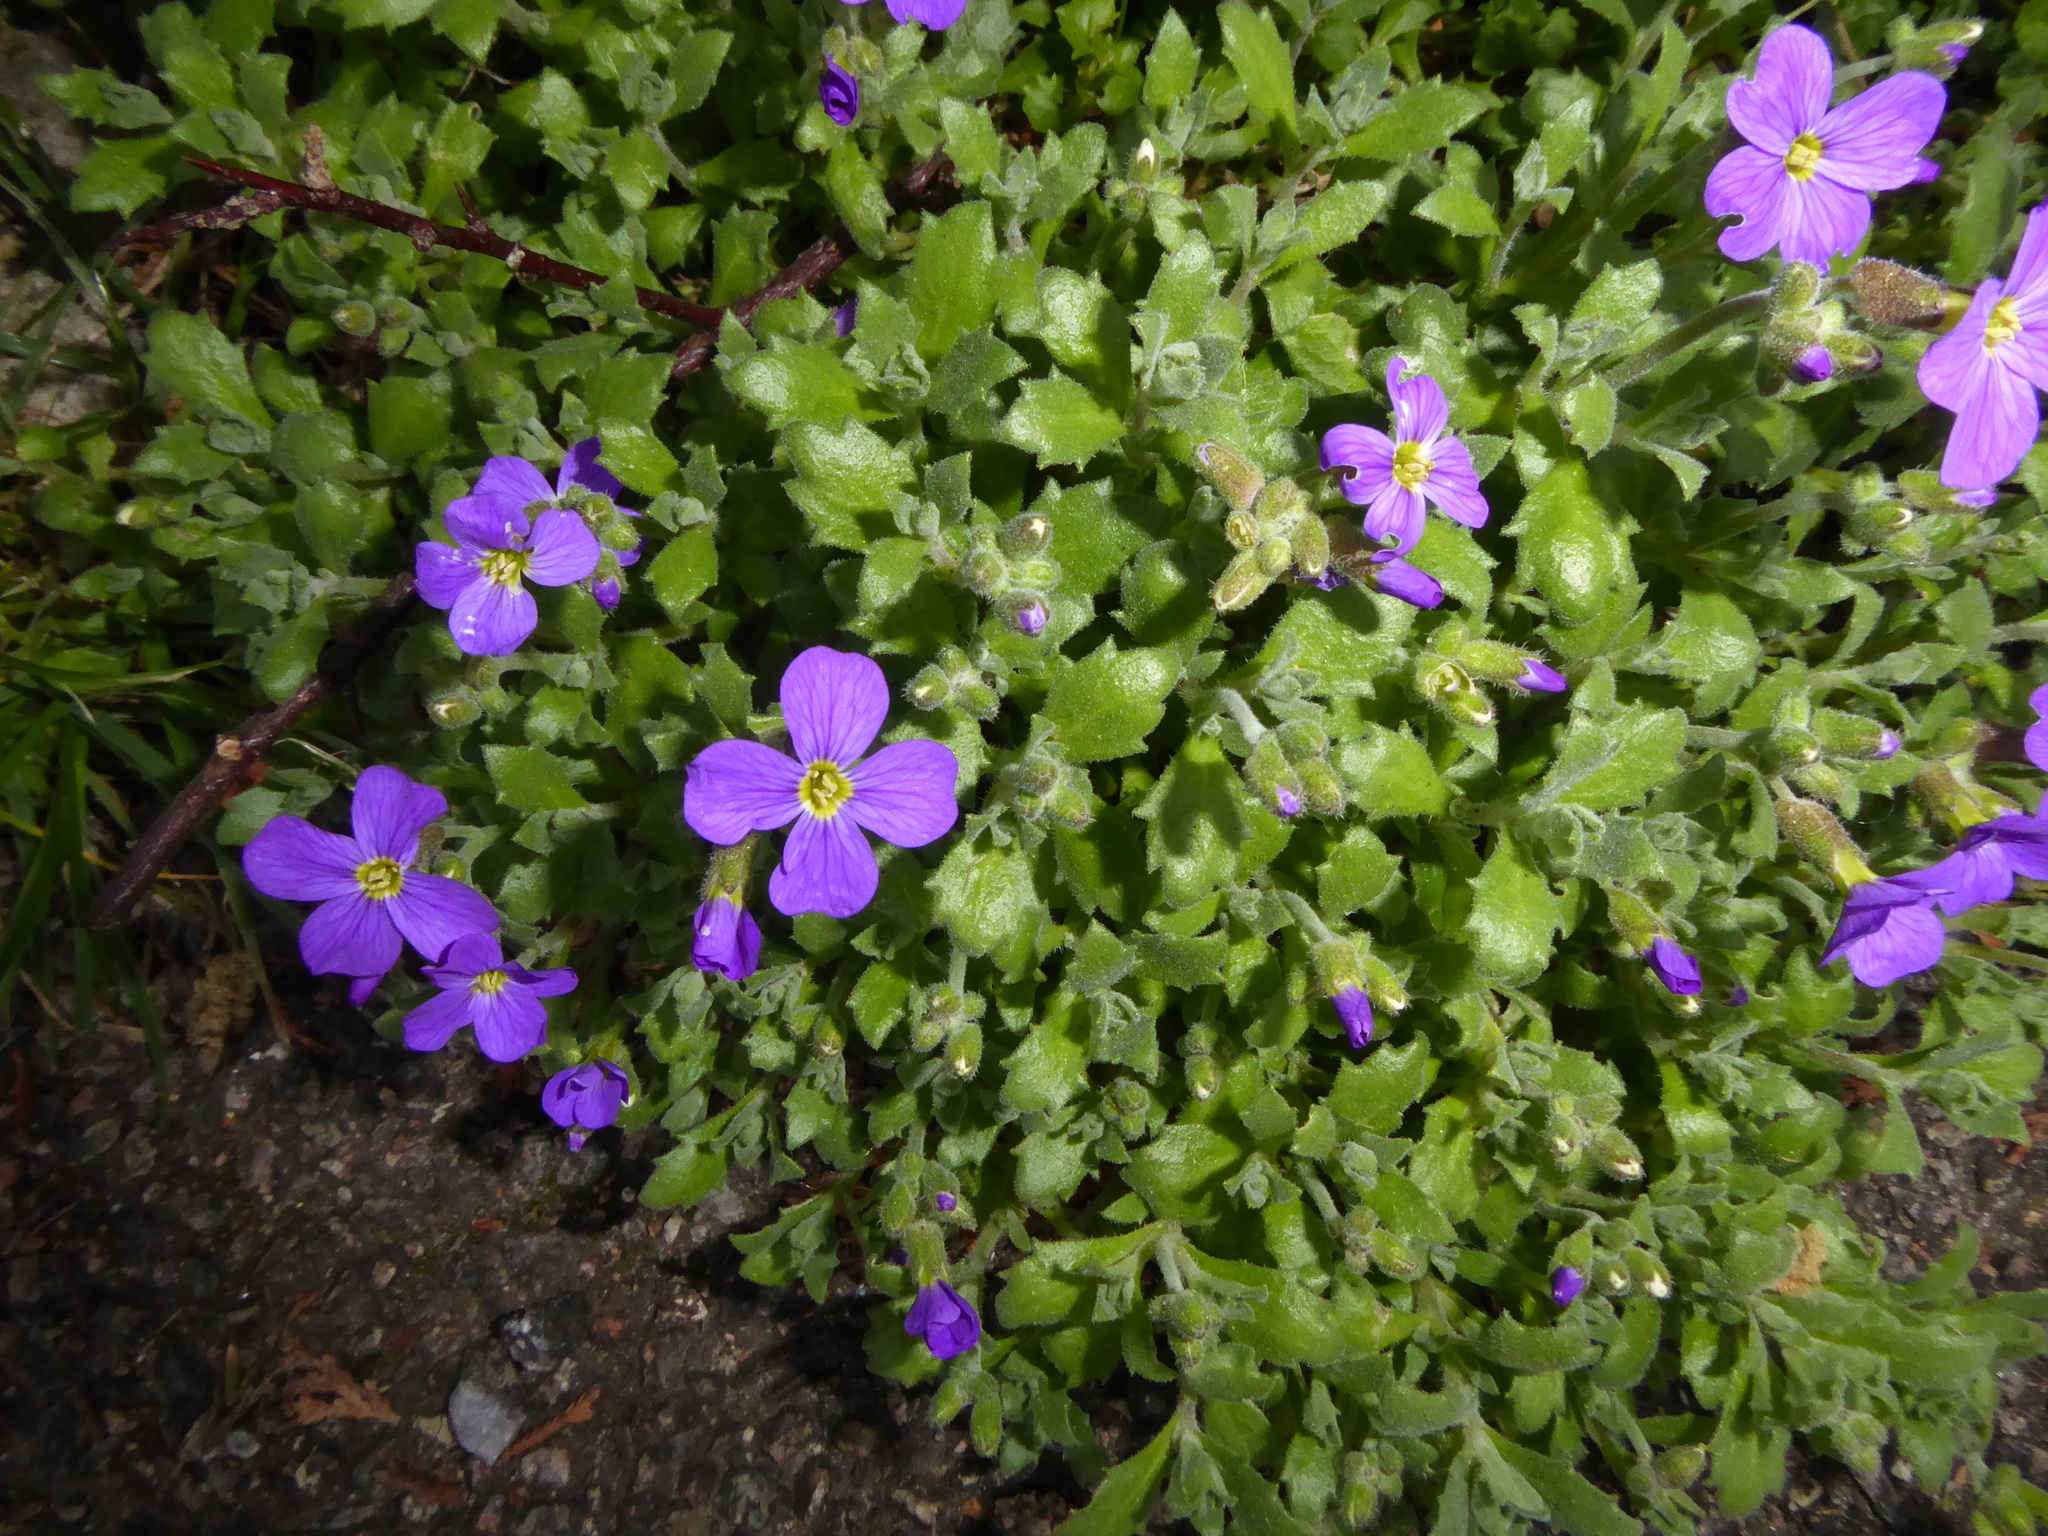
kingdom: Plantae
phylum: Tracheophyta
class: Magnoliopsida
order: Brassicales
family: Brassicaceae
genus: Aubrieta
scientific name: Aubrieta deltoidea
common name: Aubretia
